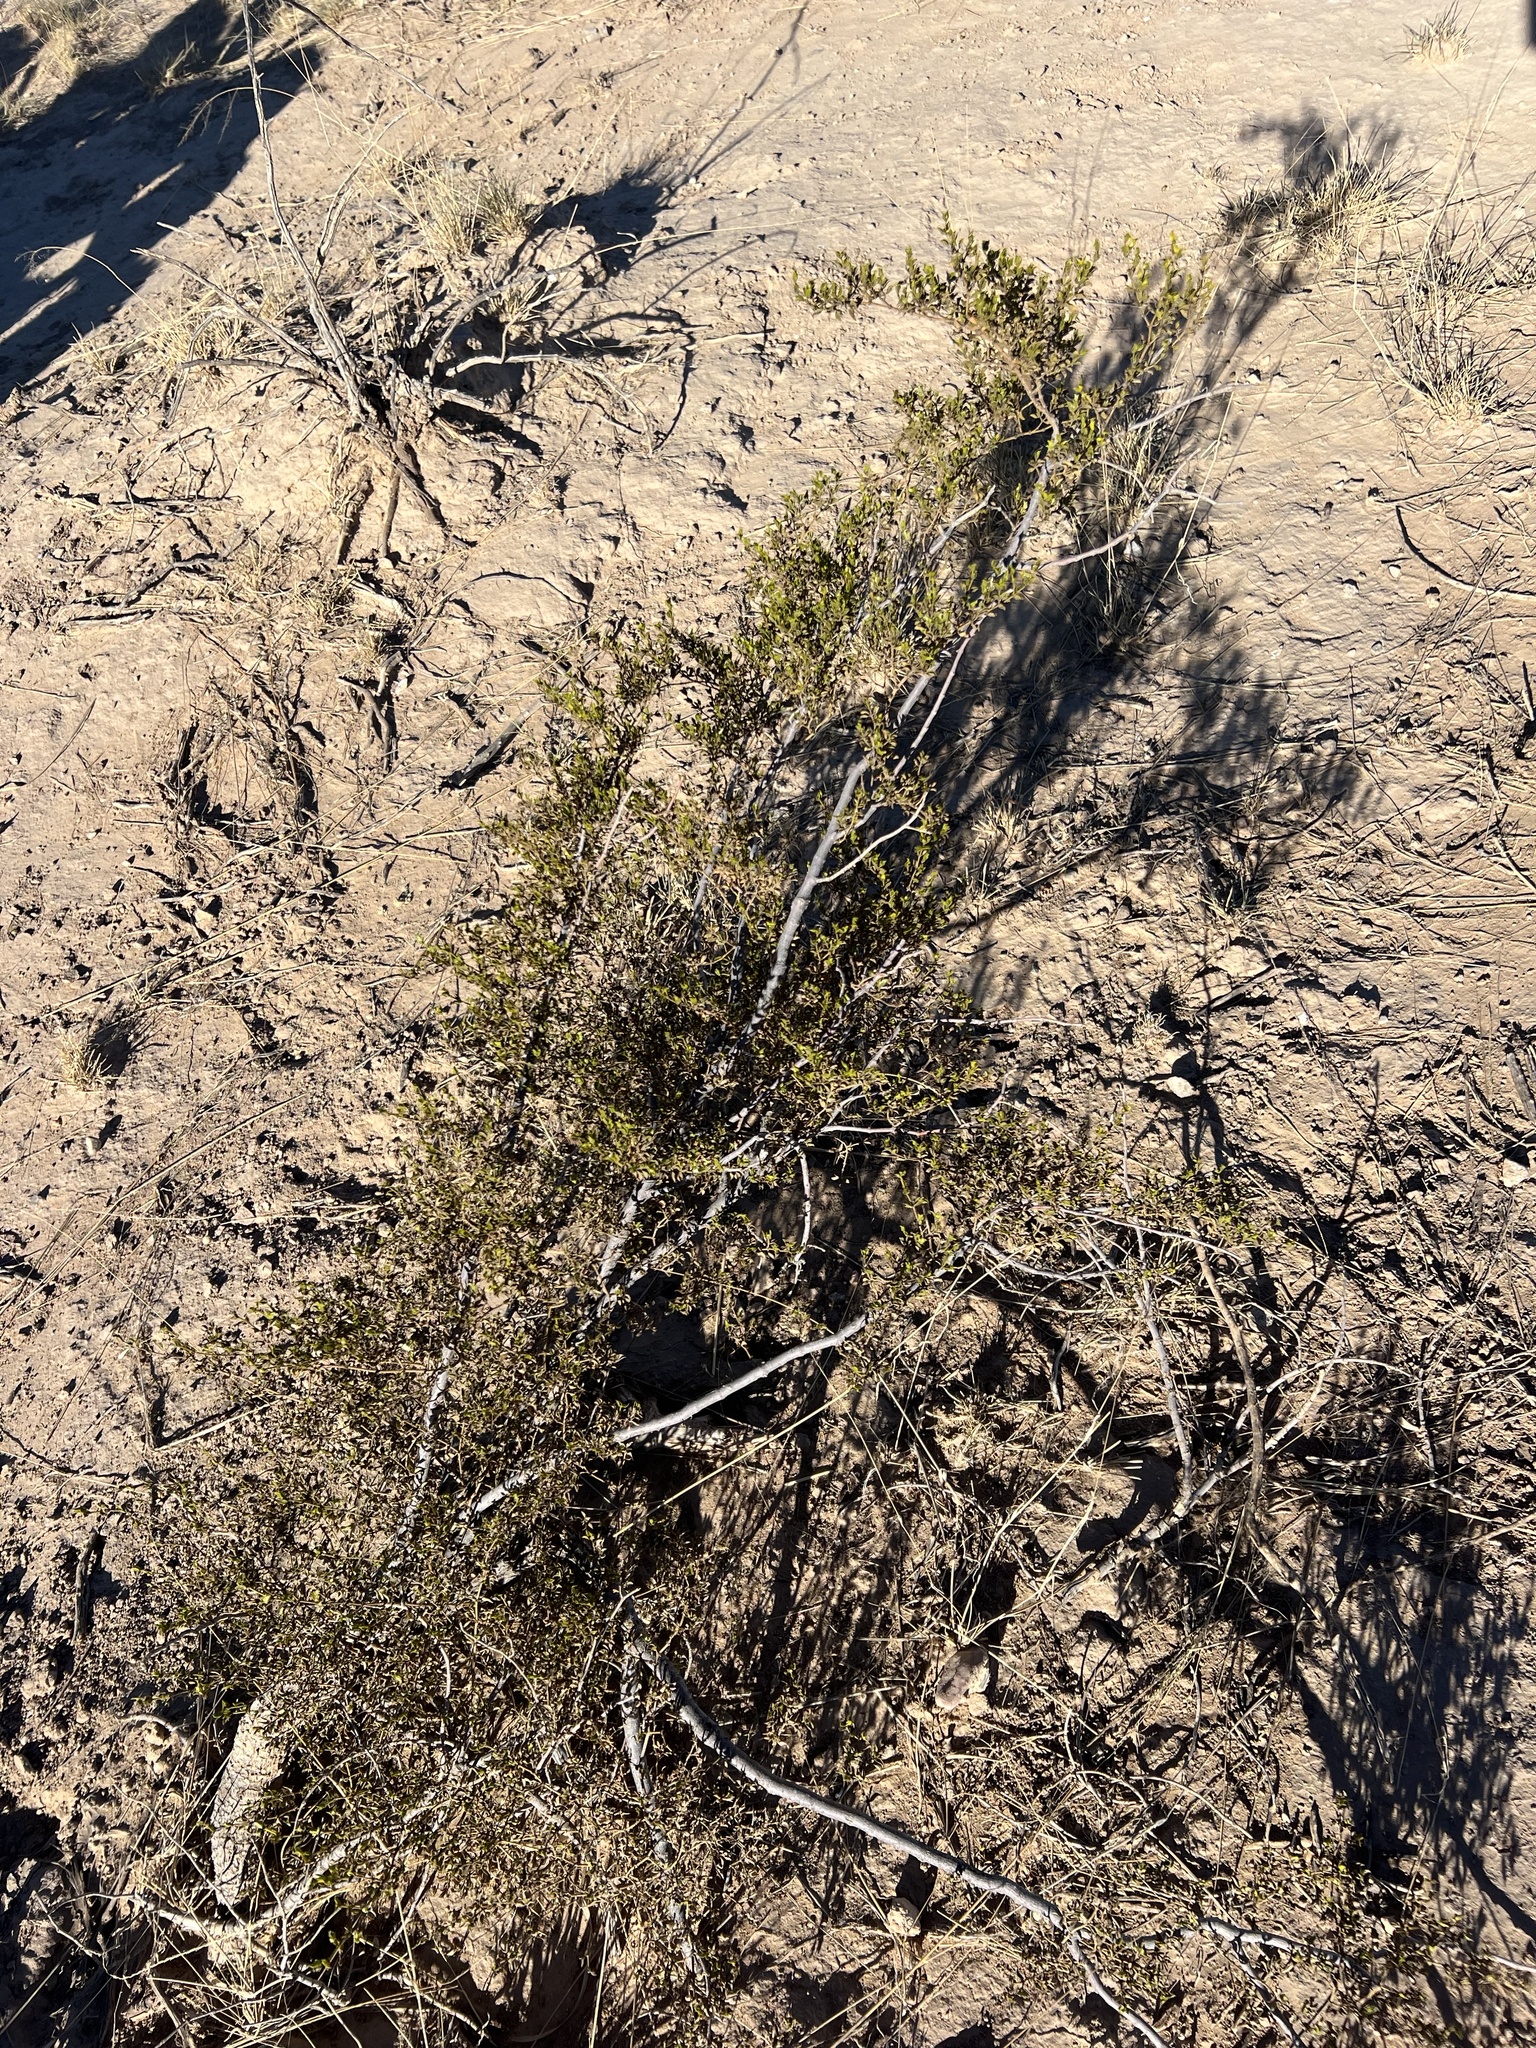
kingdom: Plantae
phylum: Tracheophyta
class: Magnoliopsida
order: Zygophyllales
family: Zygophyllaceae
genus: Larrea
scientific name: Larrea tridentata
